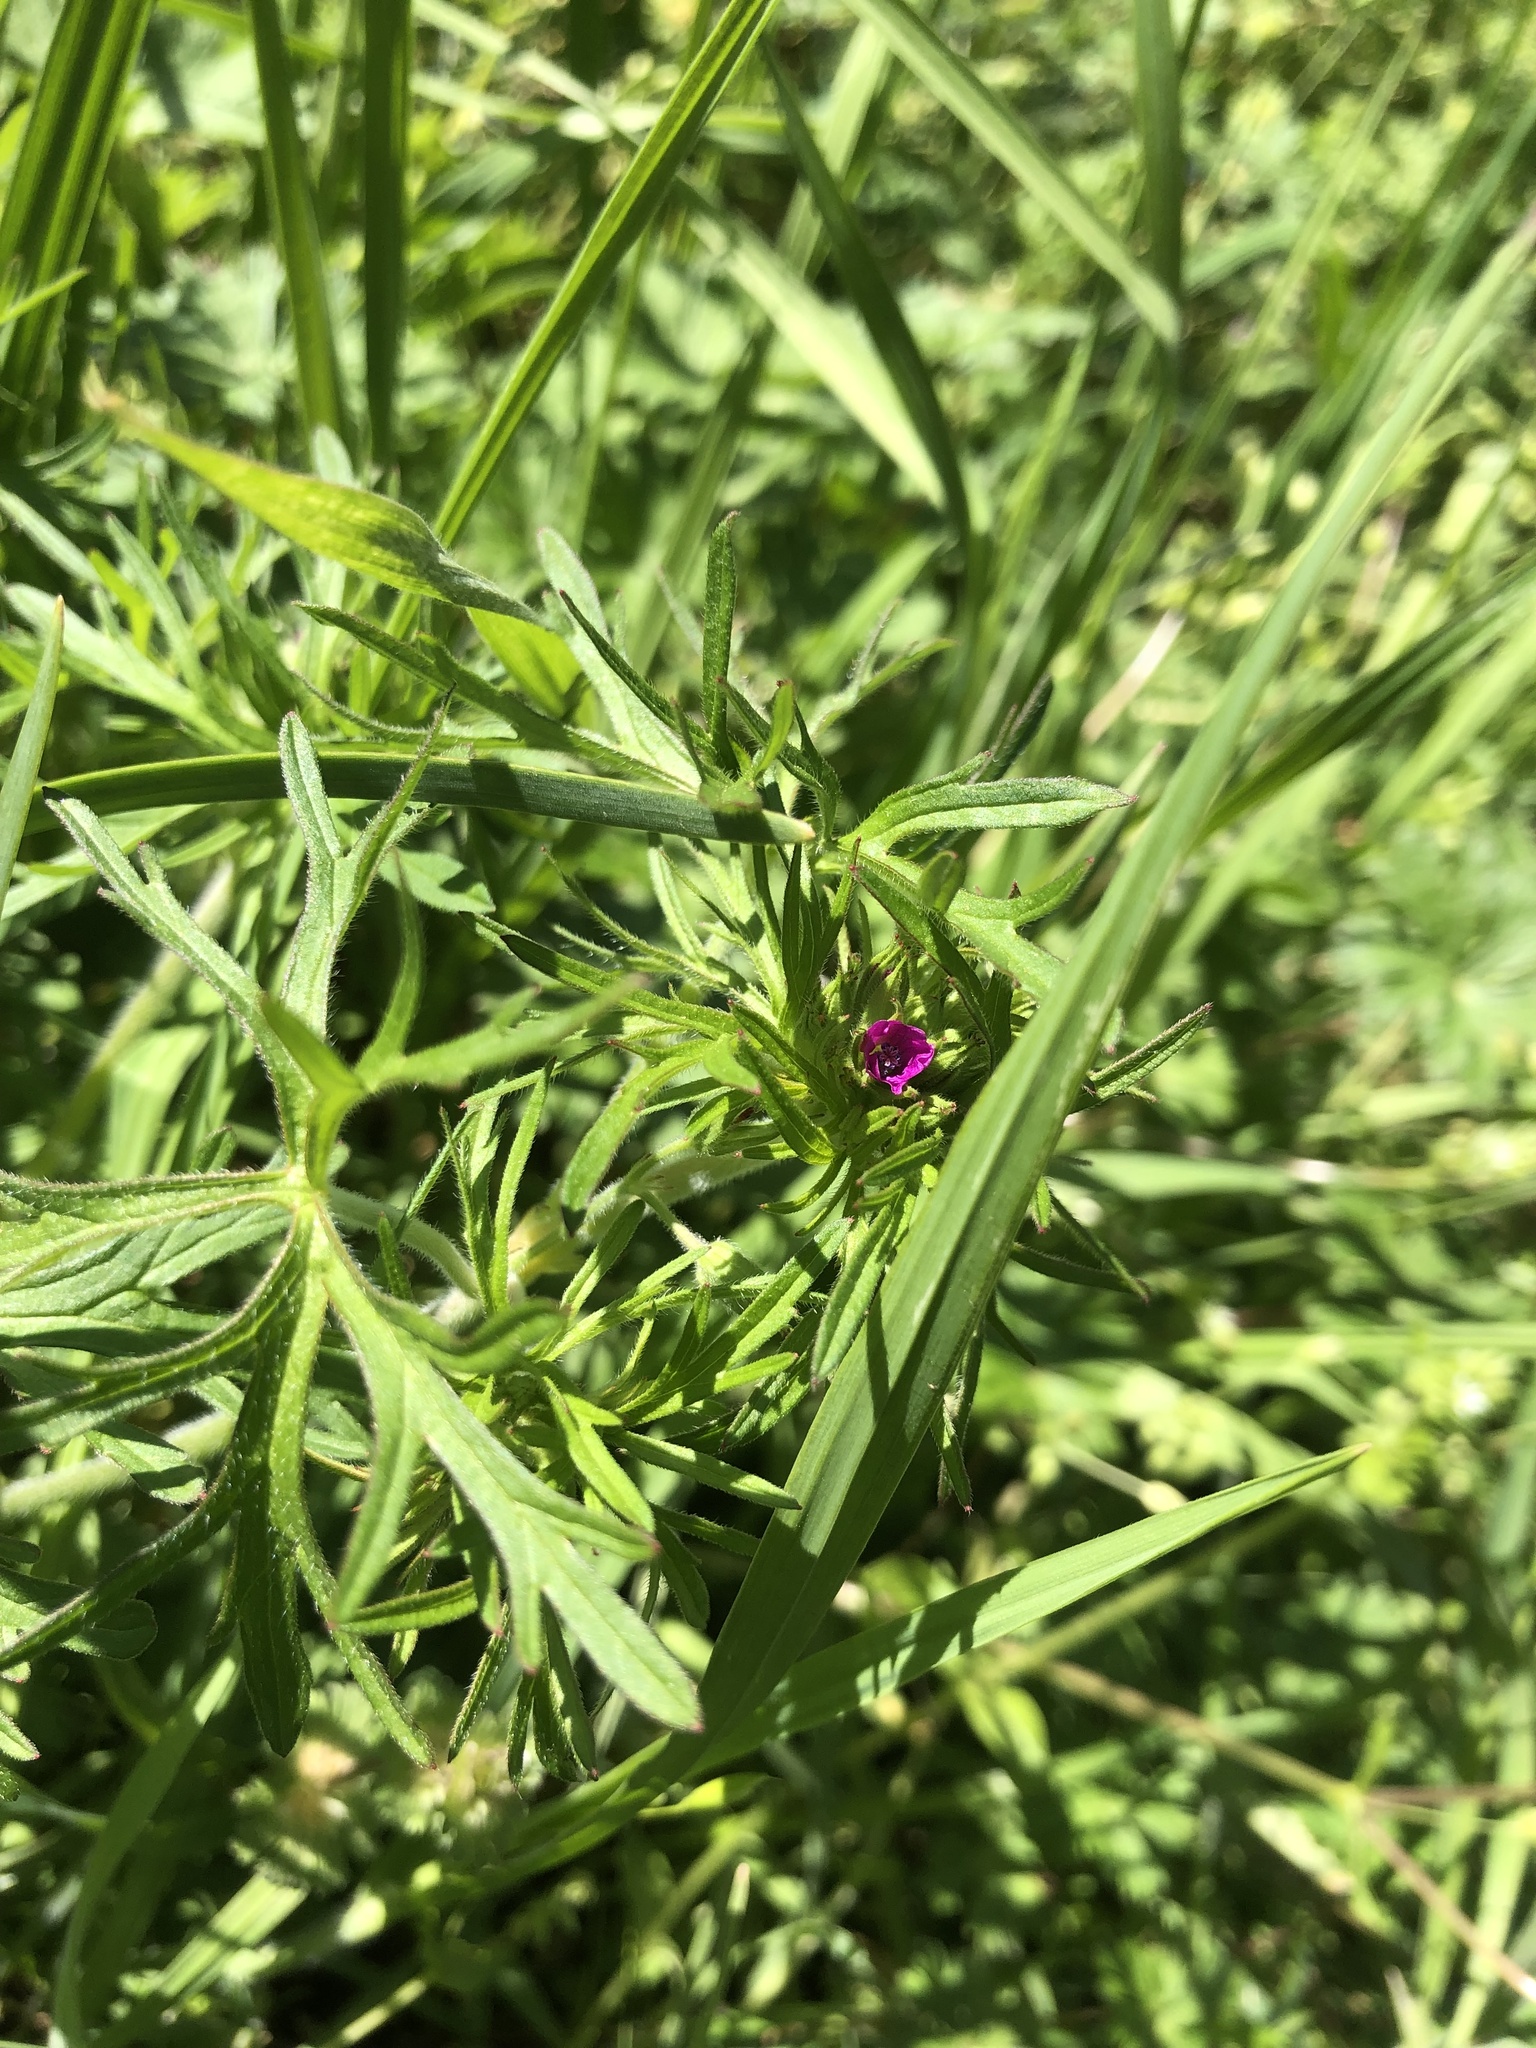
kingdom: Plantae
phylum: Tracheophyta
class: Magnoliopsida
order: Geraniales
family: Geraniaceae
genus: Geranium
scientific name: Geranium dissectum
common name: Cut-leaved crane's-bill
